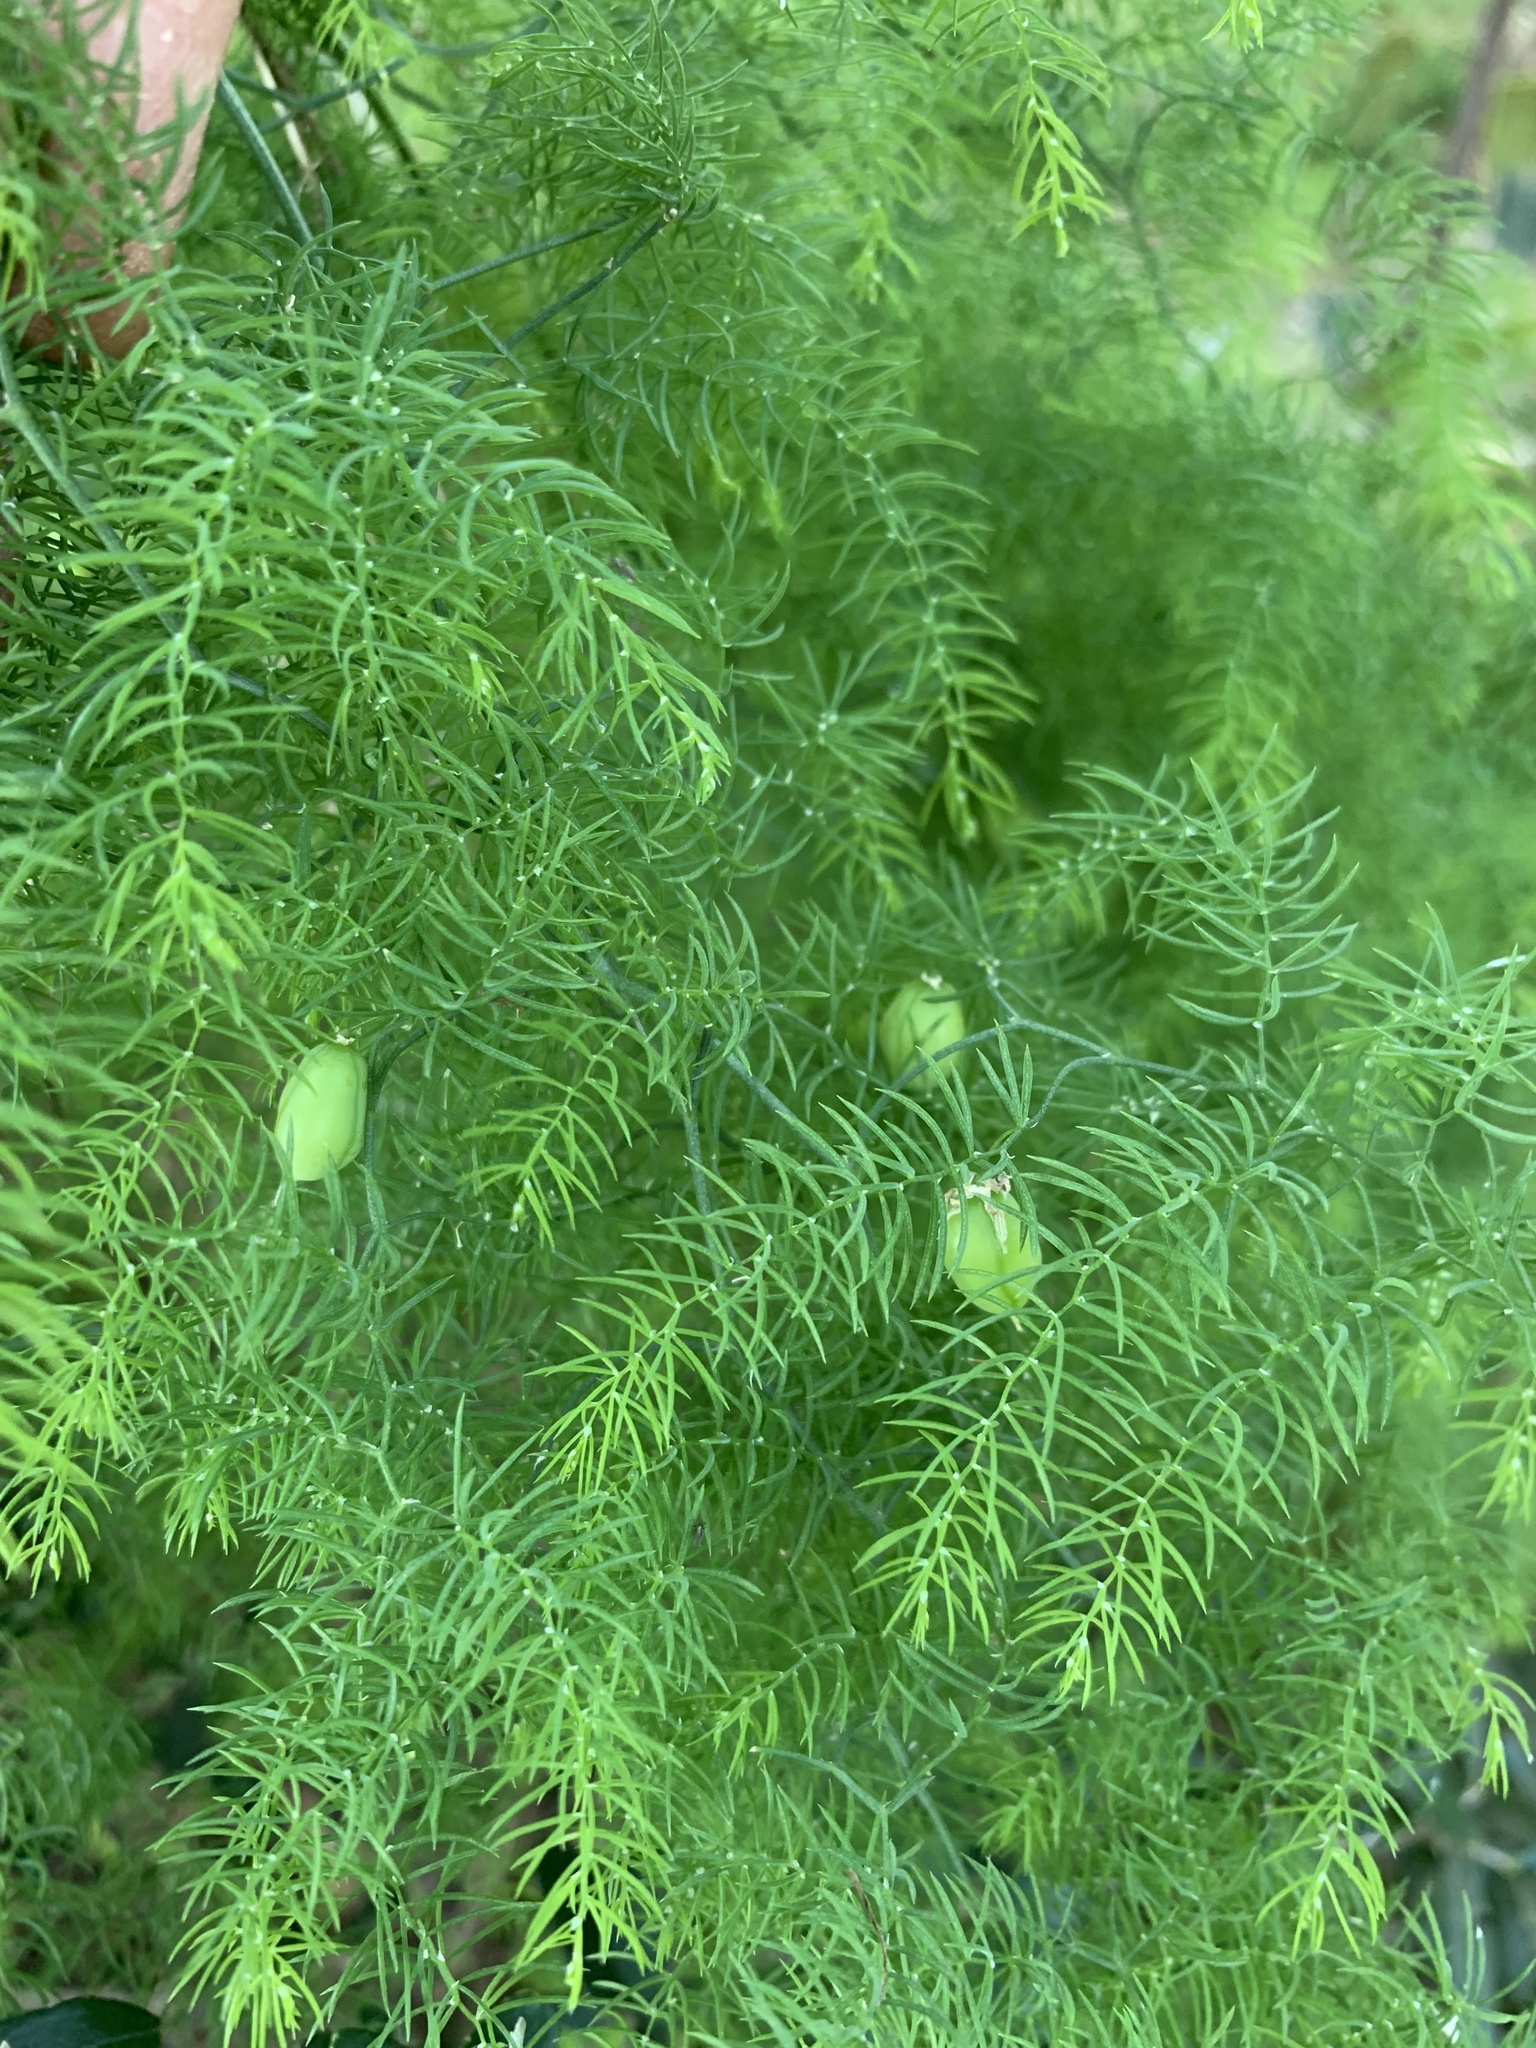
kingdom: Plantae
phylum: Tracheophyta
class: Liliopsida
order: Asparagales
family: Asparagaceae
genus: Asparagus
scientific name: Asparagus declinatus
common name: Bridal-creeper
